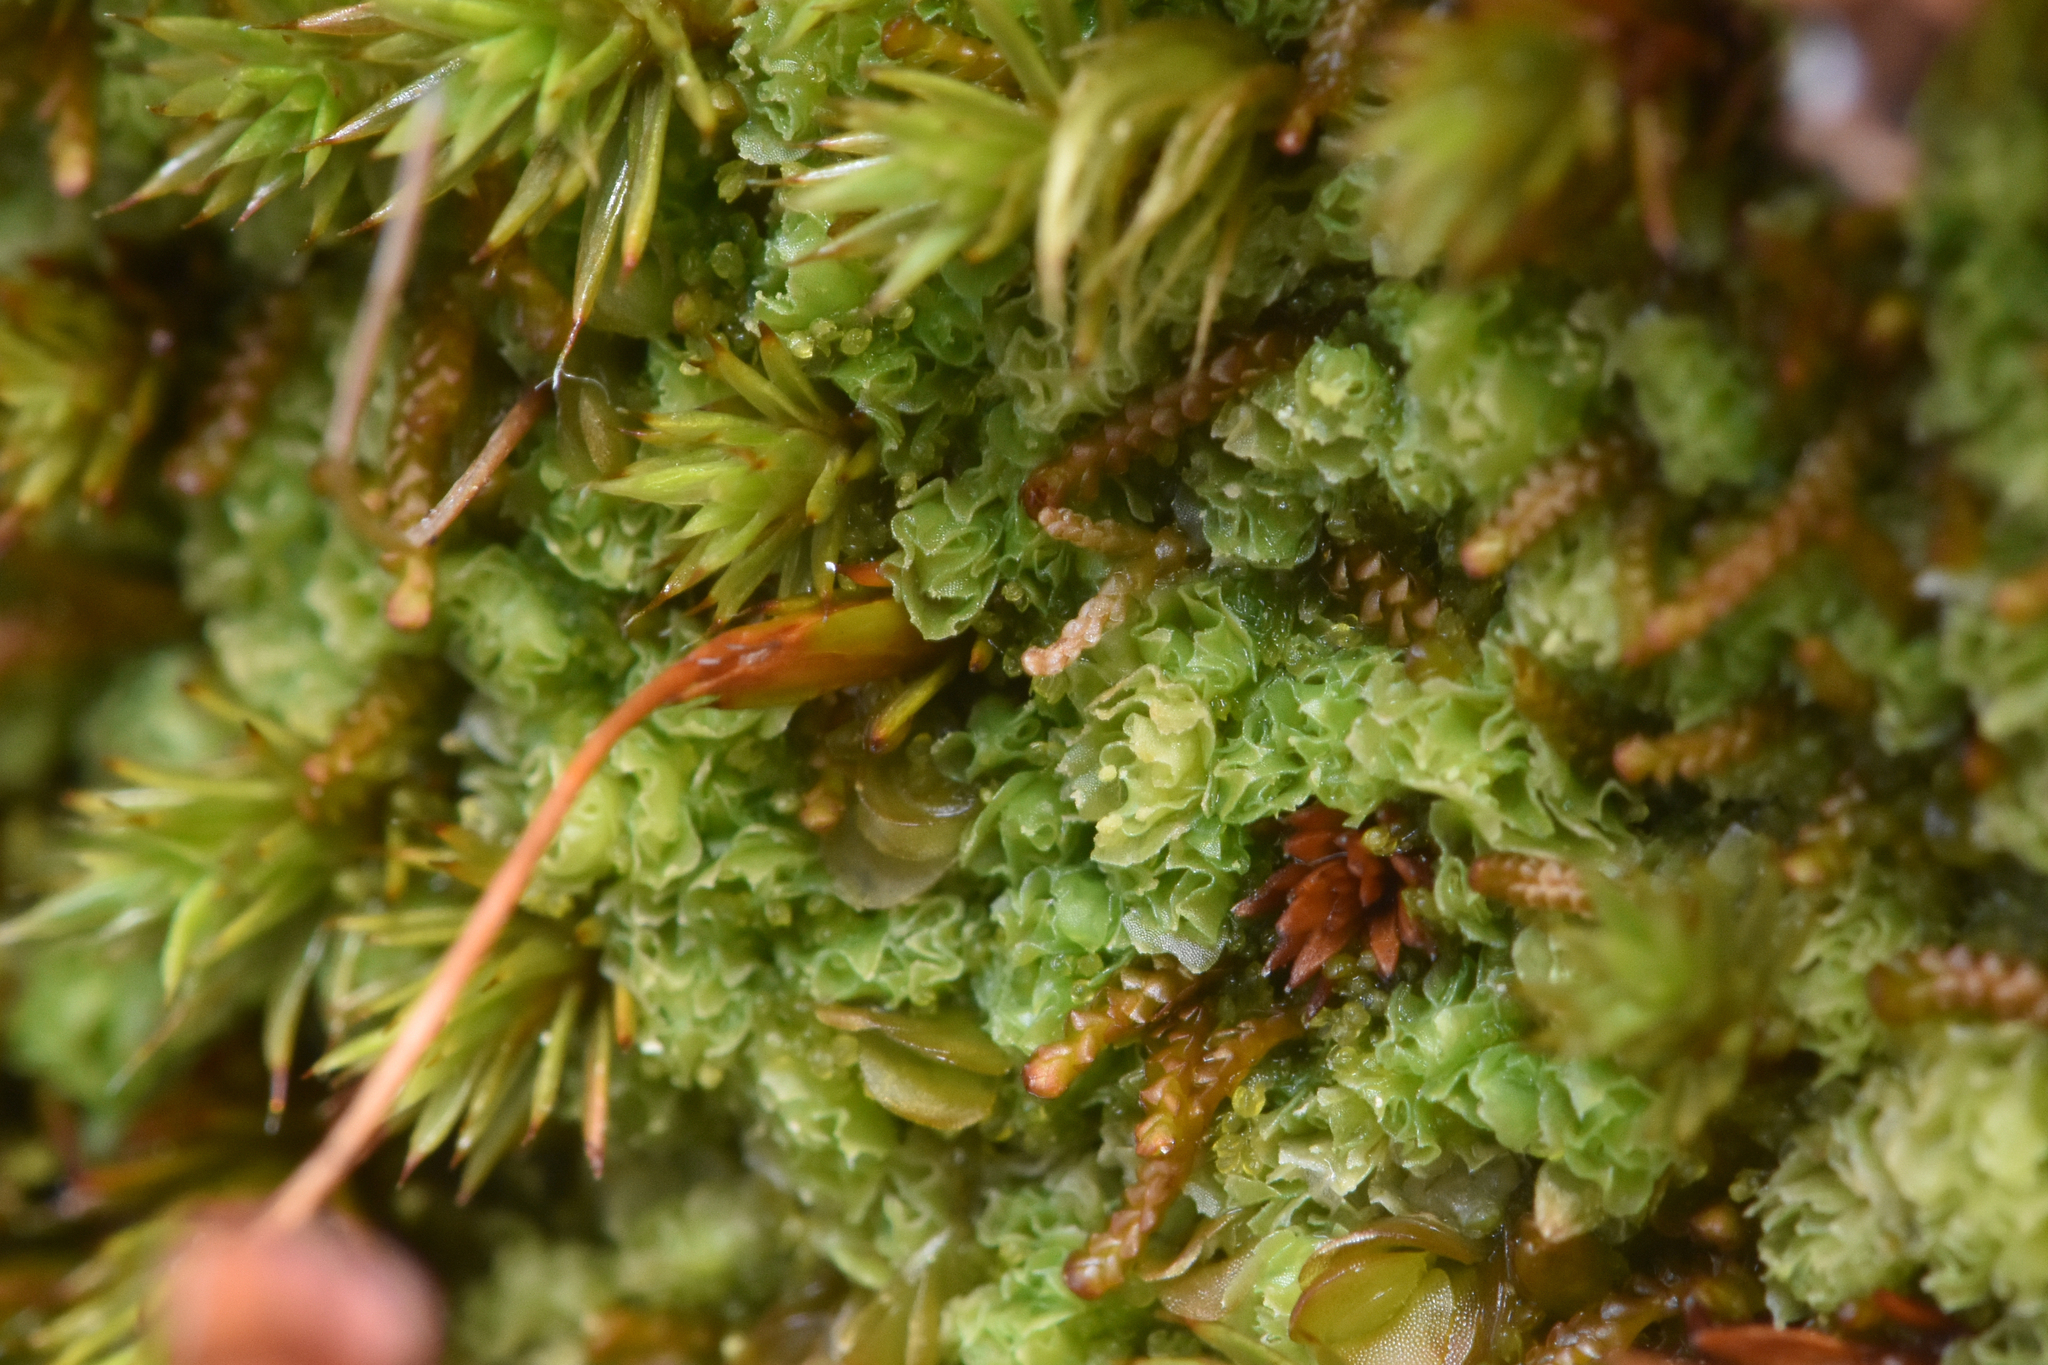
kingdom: Plantae
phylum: Marchantiophyta
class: Jungermanniopsida
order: Jungermanniales
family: Scapaniaceae
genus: Schistochilopsis
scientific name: Schistochilopsis opacifolia
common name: Alpine jagged notchwort
